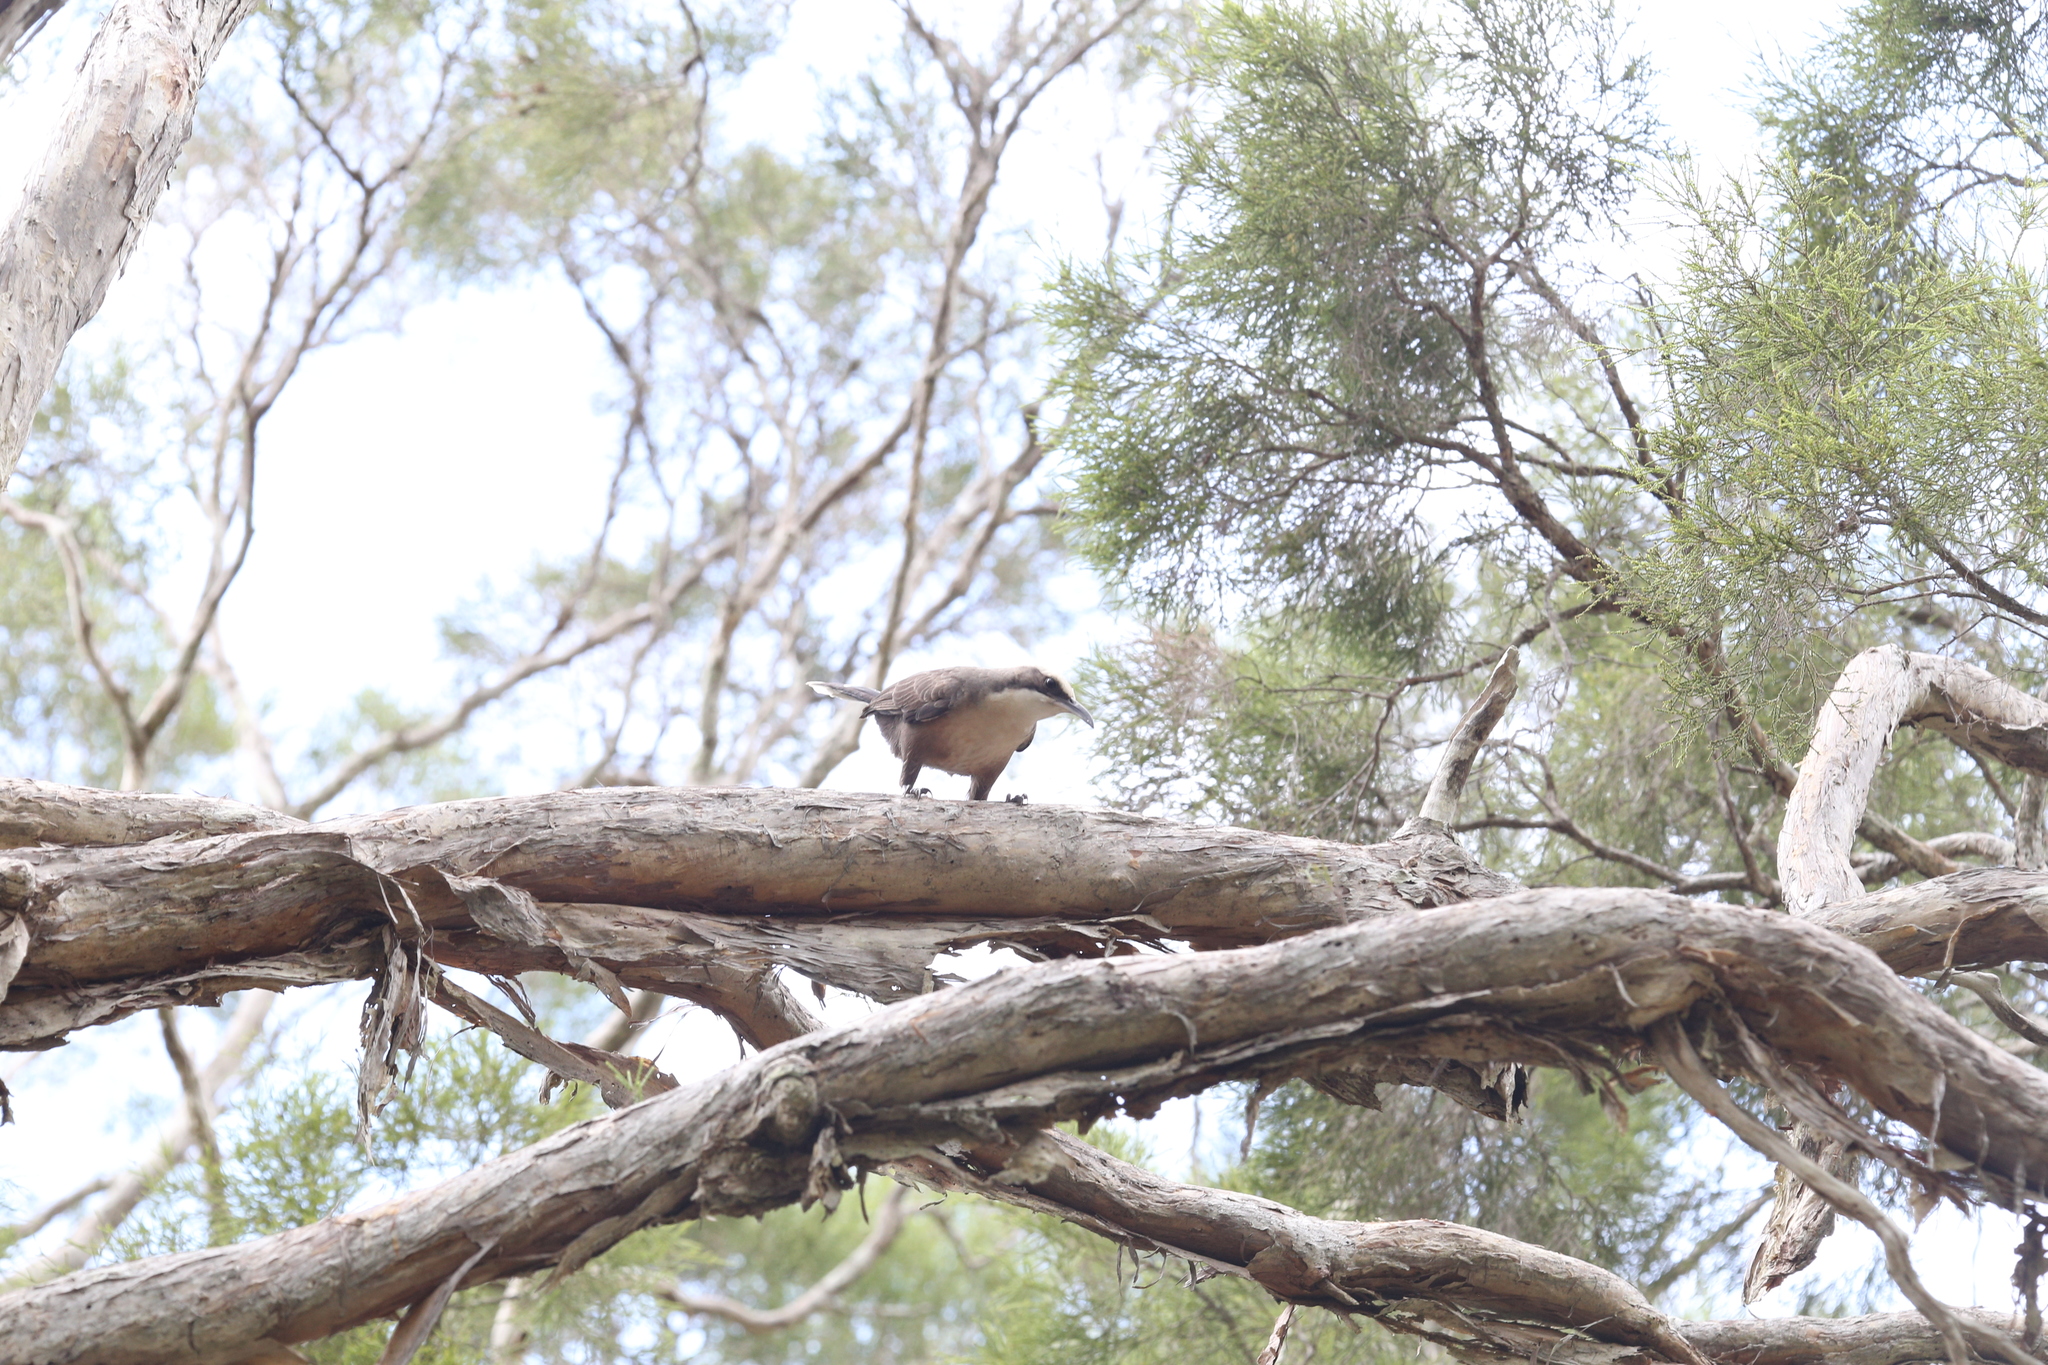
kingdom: Animalia
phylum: Chordata
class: Aves
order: Passeriformes
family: Pomatostomidae
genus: Pomatostomus
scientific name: Pomatostomus temporalis
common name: Grey-crowned babbler
